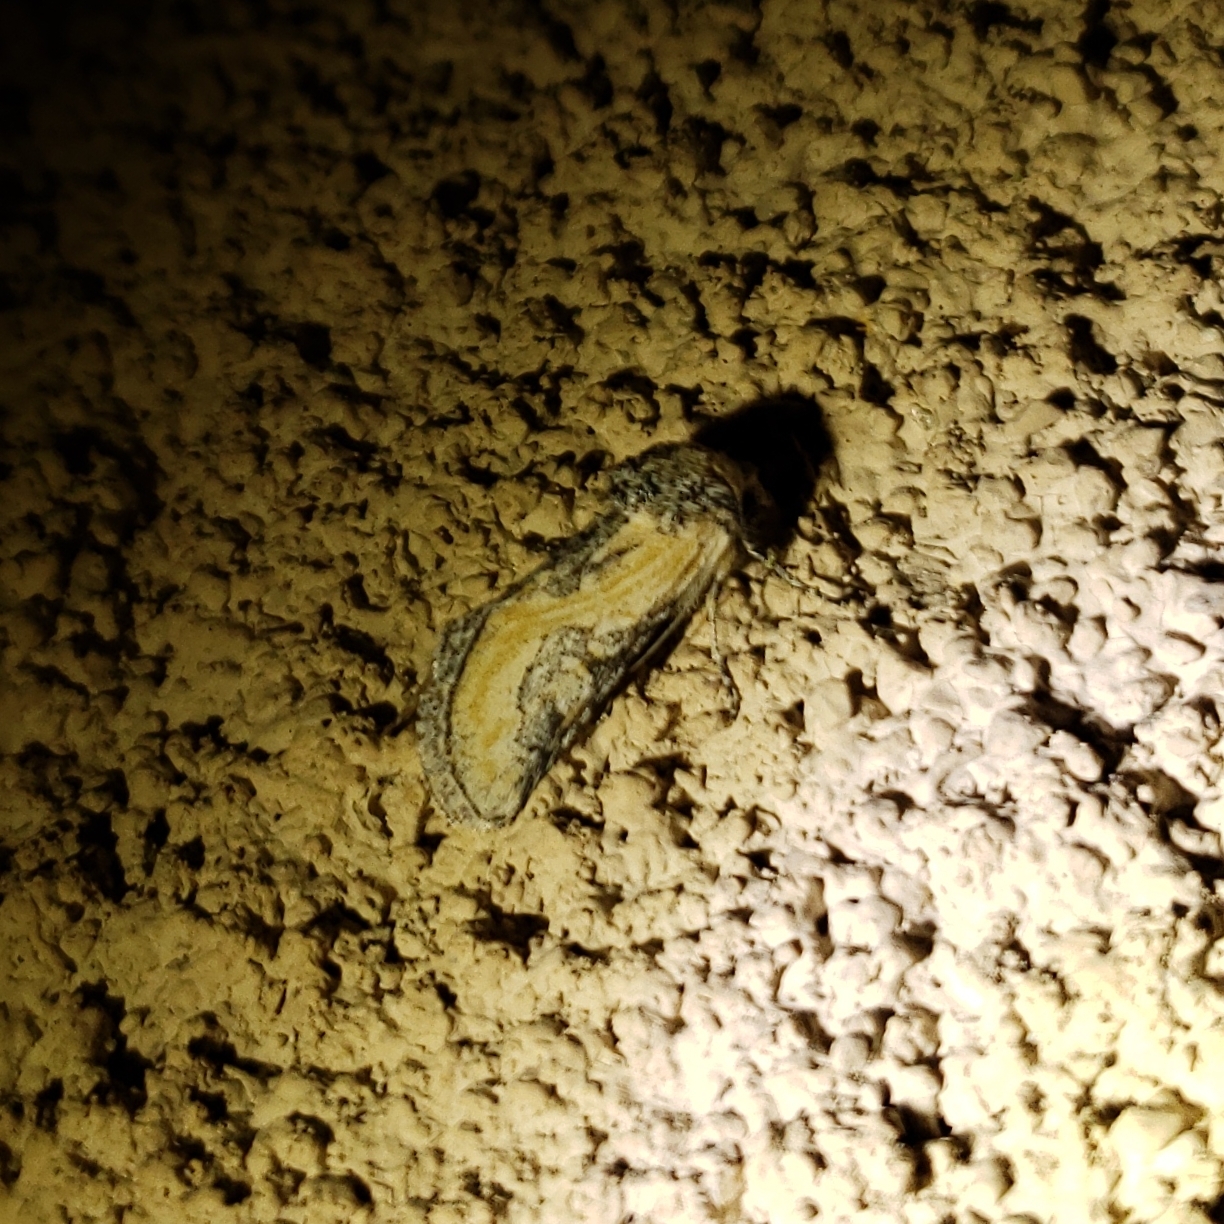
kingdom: Animalia
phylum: Arthropoda
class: Insecta
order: Lepidoptera
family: Noctuidae
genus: Crimona
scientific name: Crimona pallimedia
